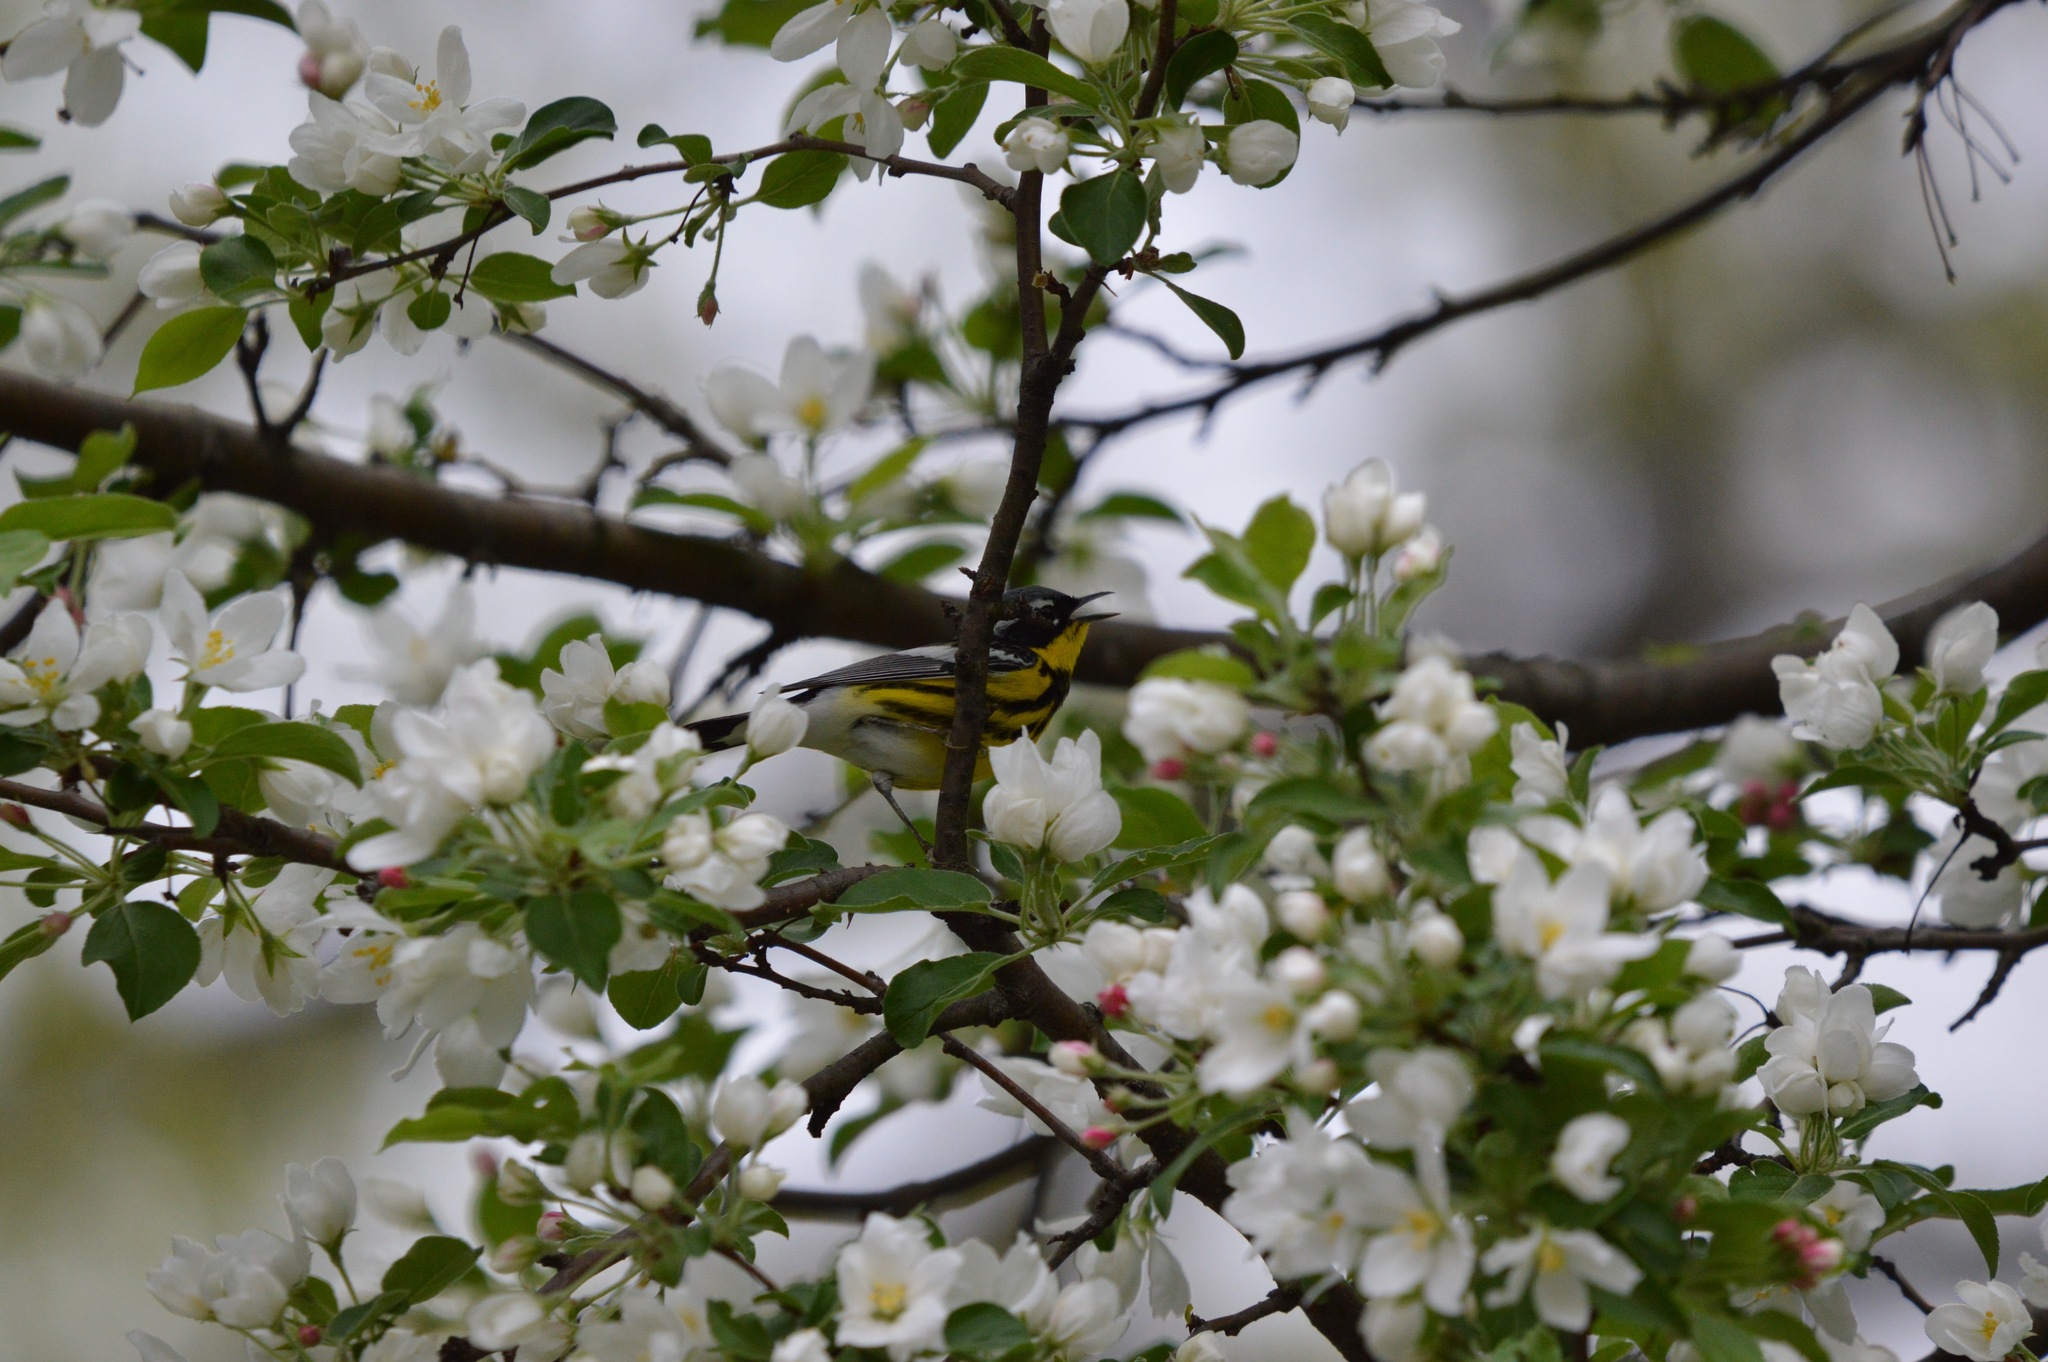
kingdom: Animalia
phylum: Chordata
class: Aves
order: Passeriformes
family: Parulidae
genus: Setophaga
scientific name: Setophaga magnolia
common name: Magnolia warbler
